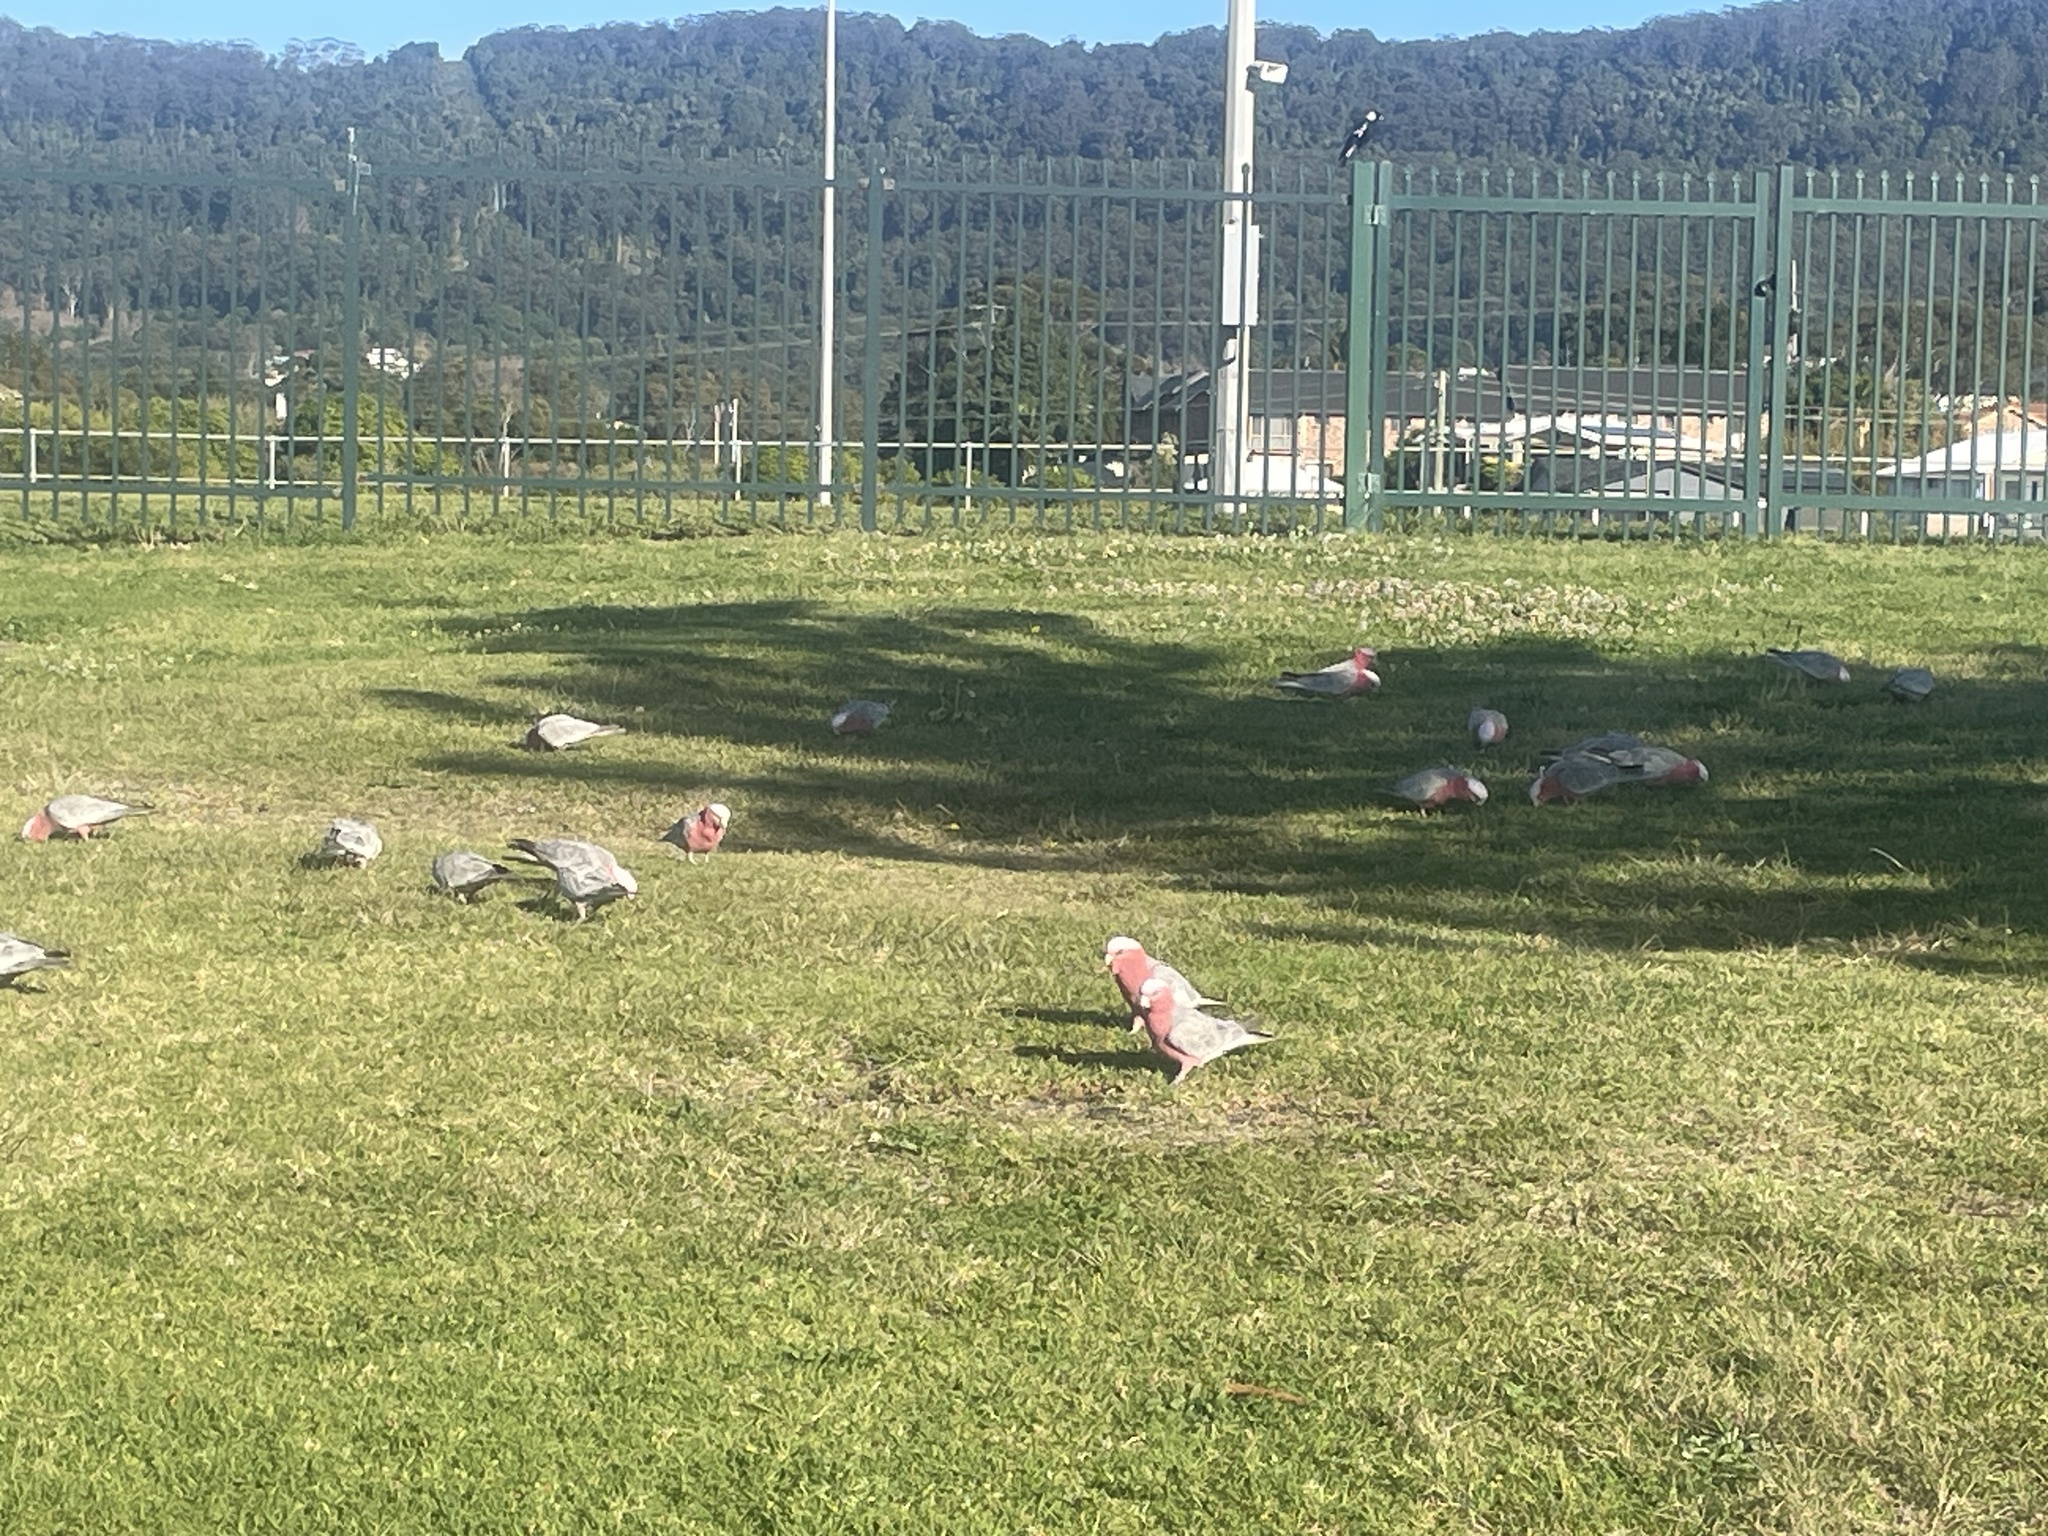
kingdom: Animalia
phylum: Chordata
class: Aves
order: Psittaciformes
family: Psittacidae
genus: Eolophus
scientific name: Eolophus roseicapilla
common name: Galah
